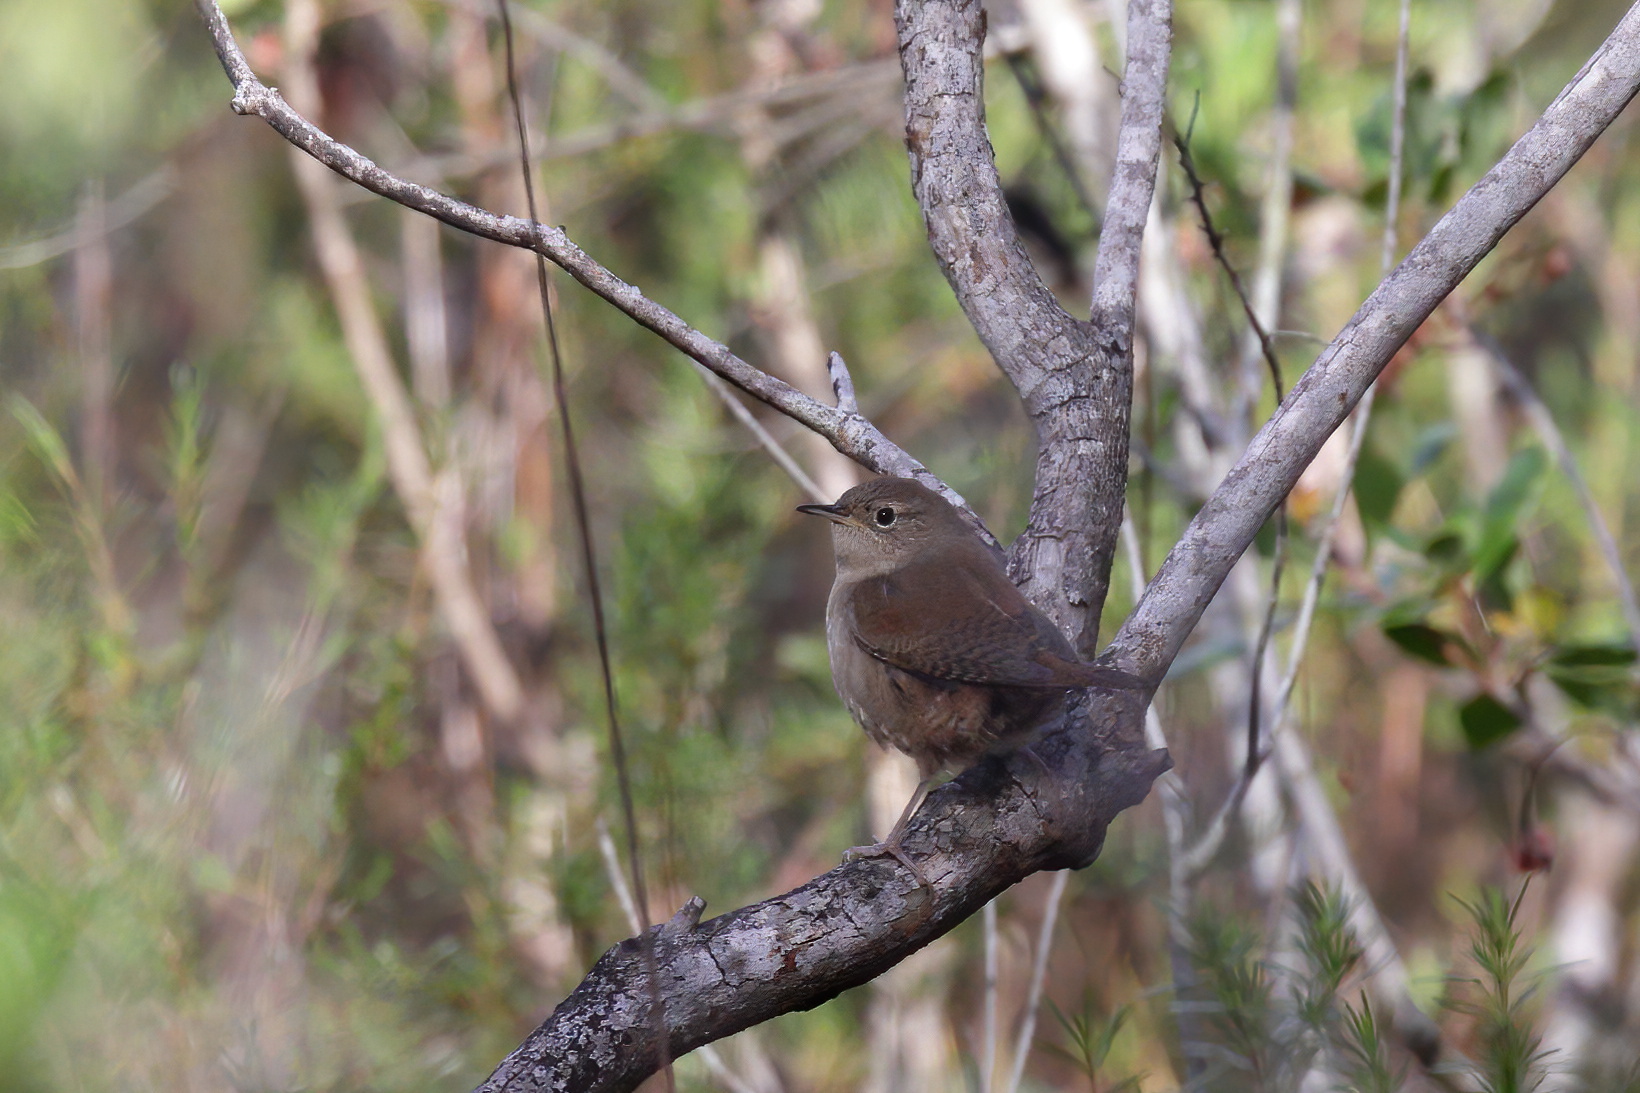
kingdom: Animalia
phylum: Chordata
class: Aves
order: Passeriformes
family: Troglodytidae
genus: Troglodytes
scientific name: Troglodytes aedon
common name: House wren
